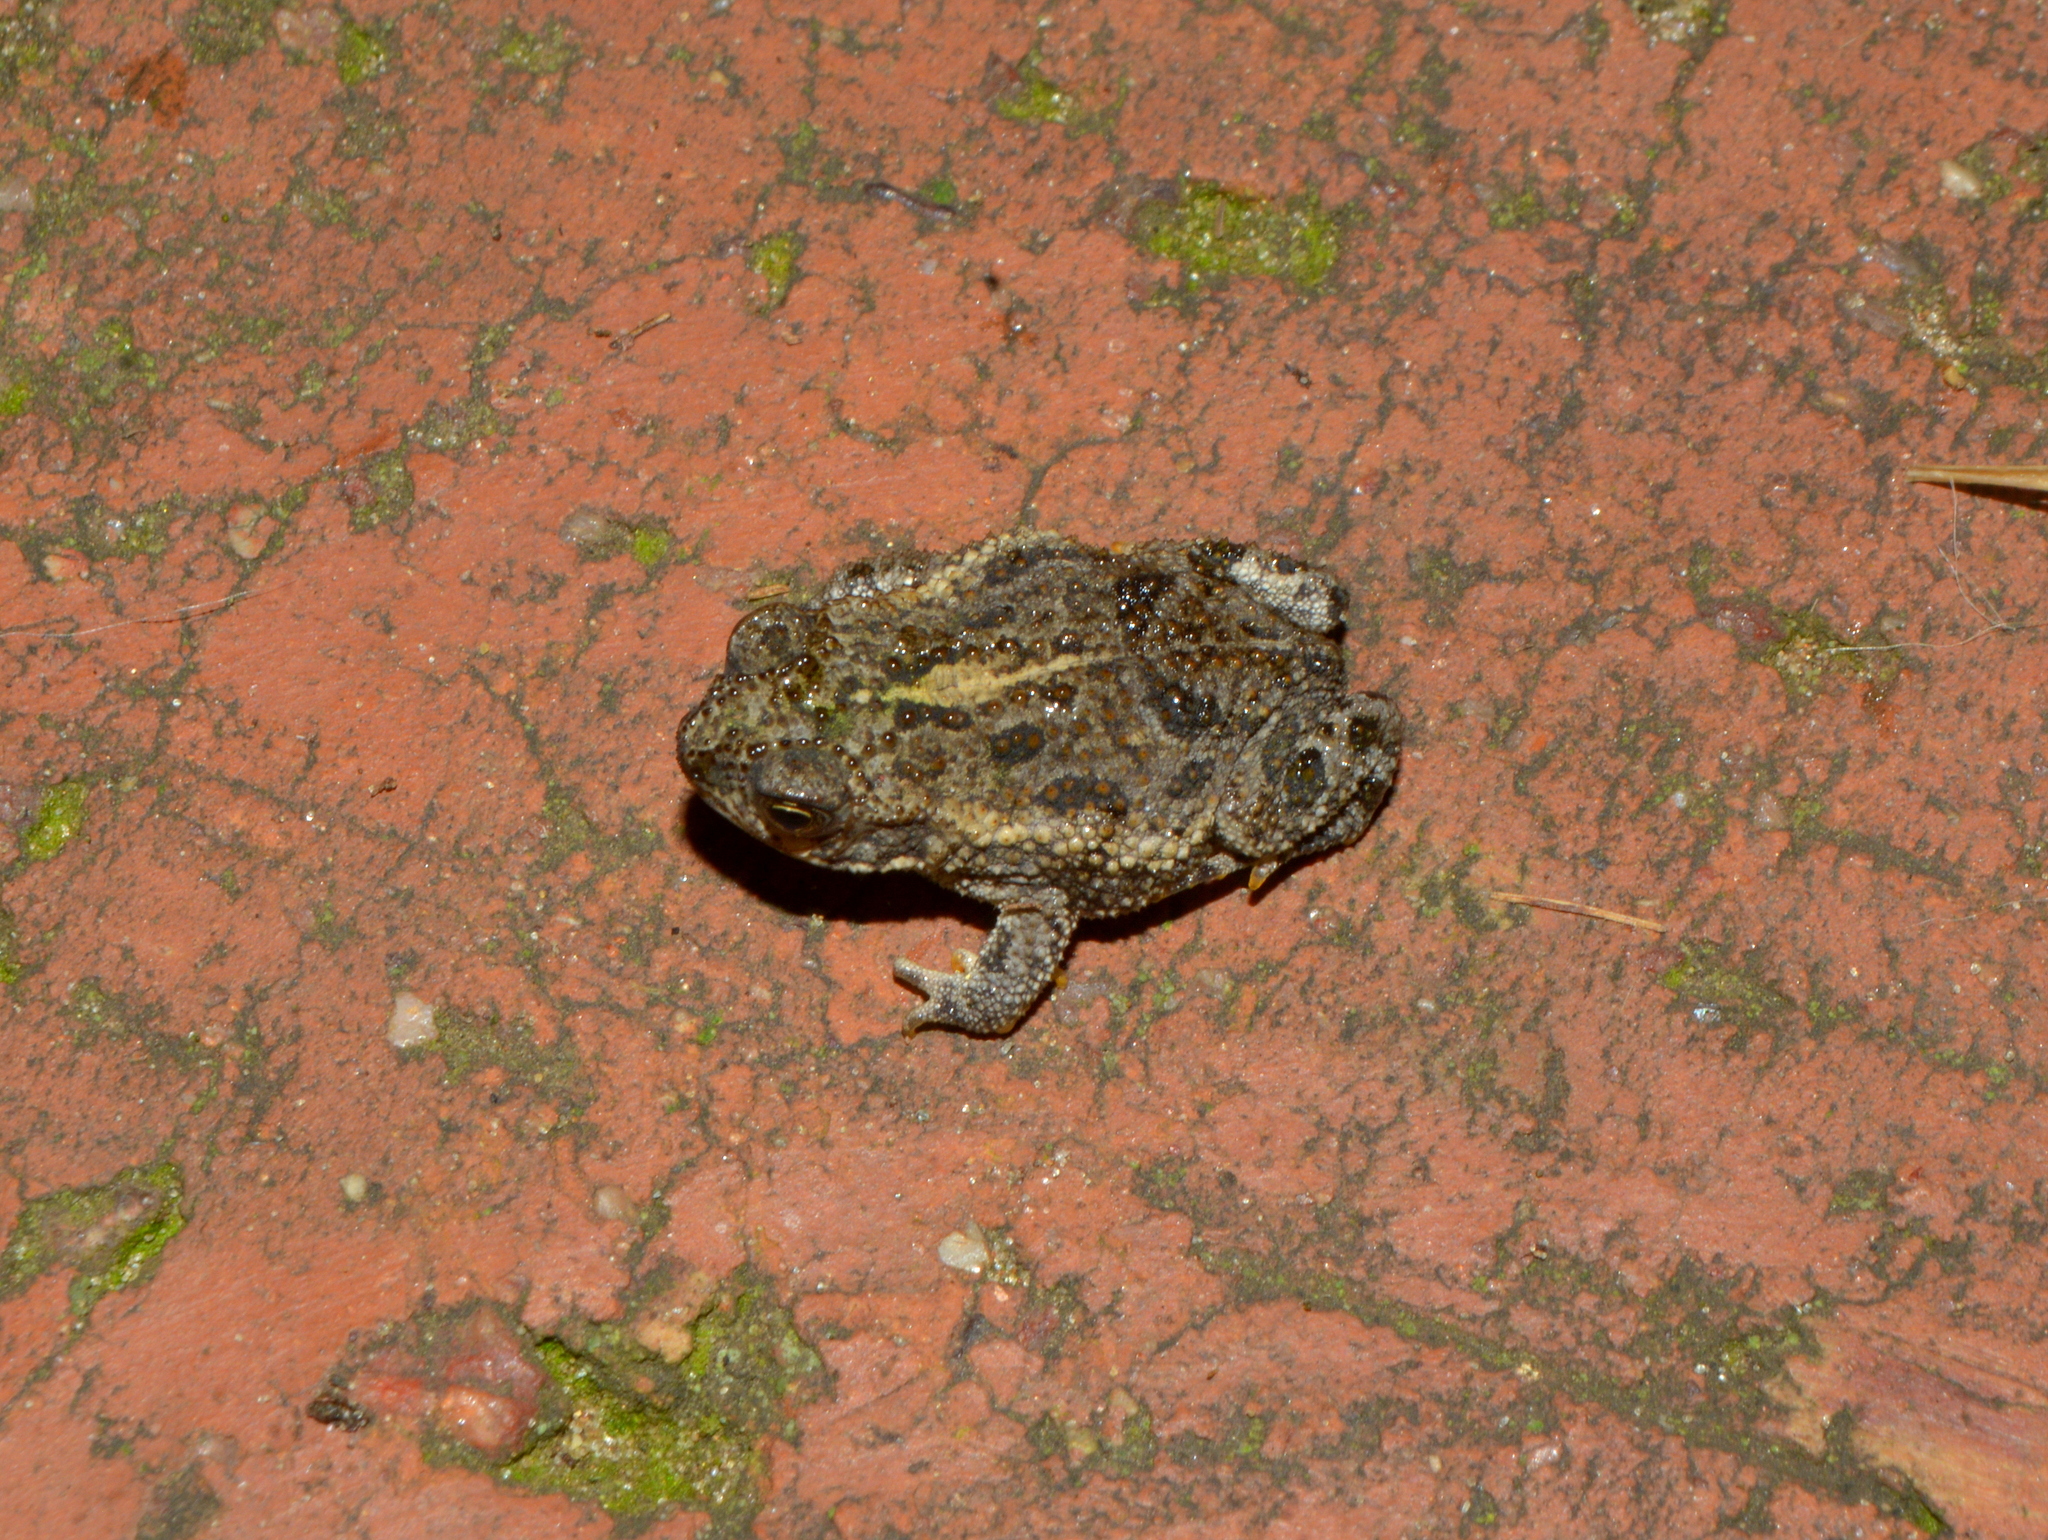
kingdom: Animalia
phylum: Chordata
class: Amphibia
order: Anura
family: Bufonidae
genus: Rhinella
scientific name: Rhinella dorbignyi
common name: D´orbigny’s toad
